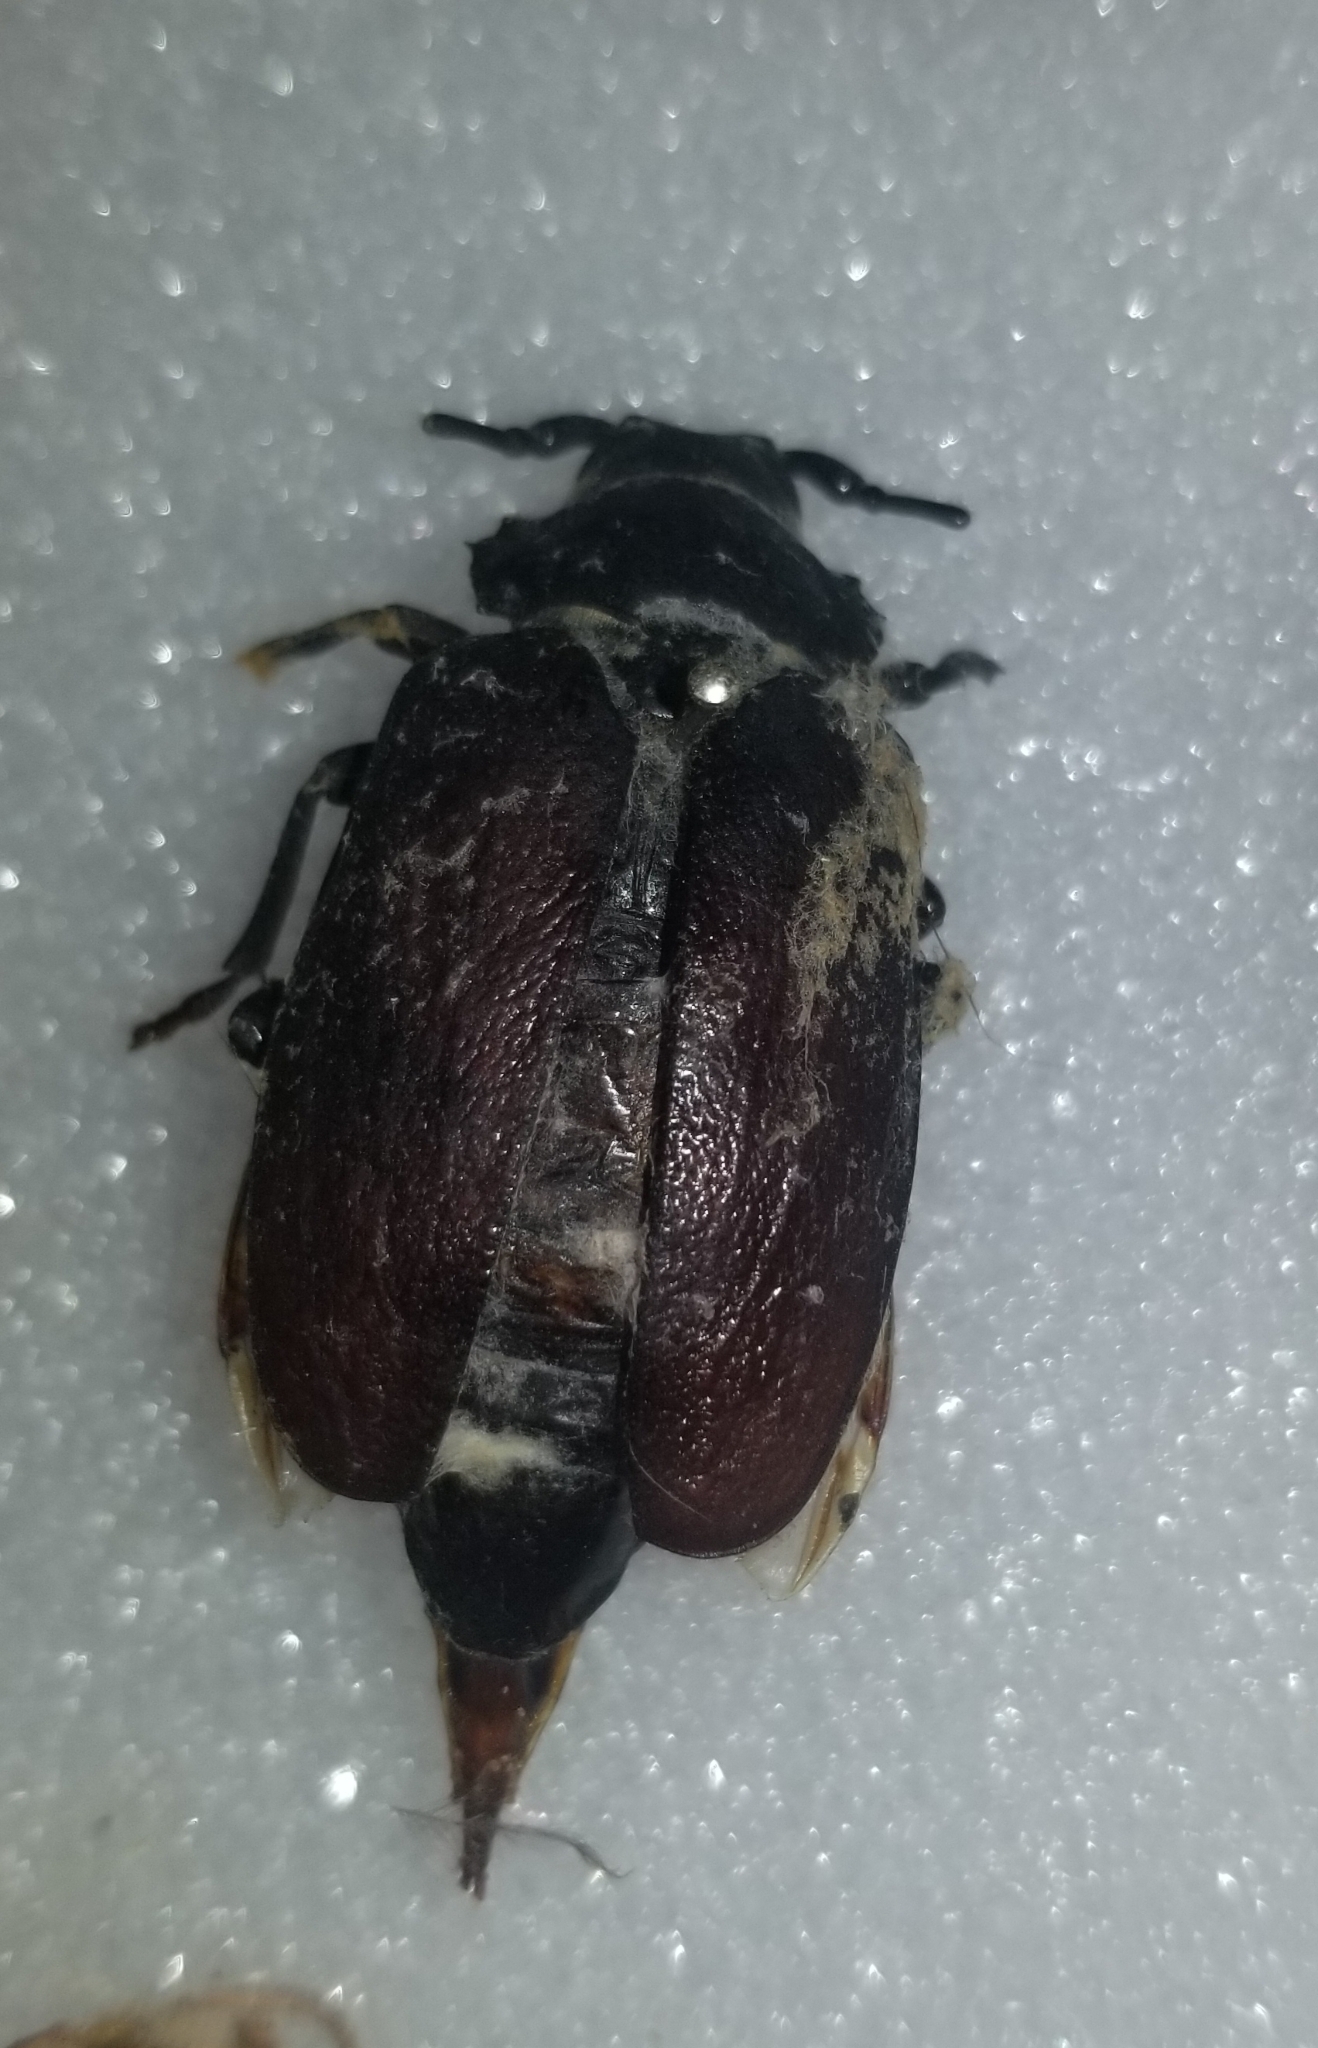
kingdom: Animalia
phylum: Arthropoda
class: Insecta
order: Coleoptera
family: Cerambycidae
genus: Prionus
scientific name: Prionus laticollis
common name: Broad necked prionus
